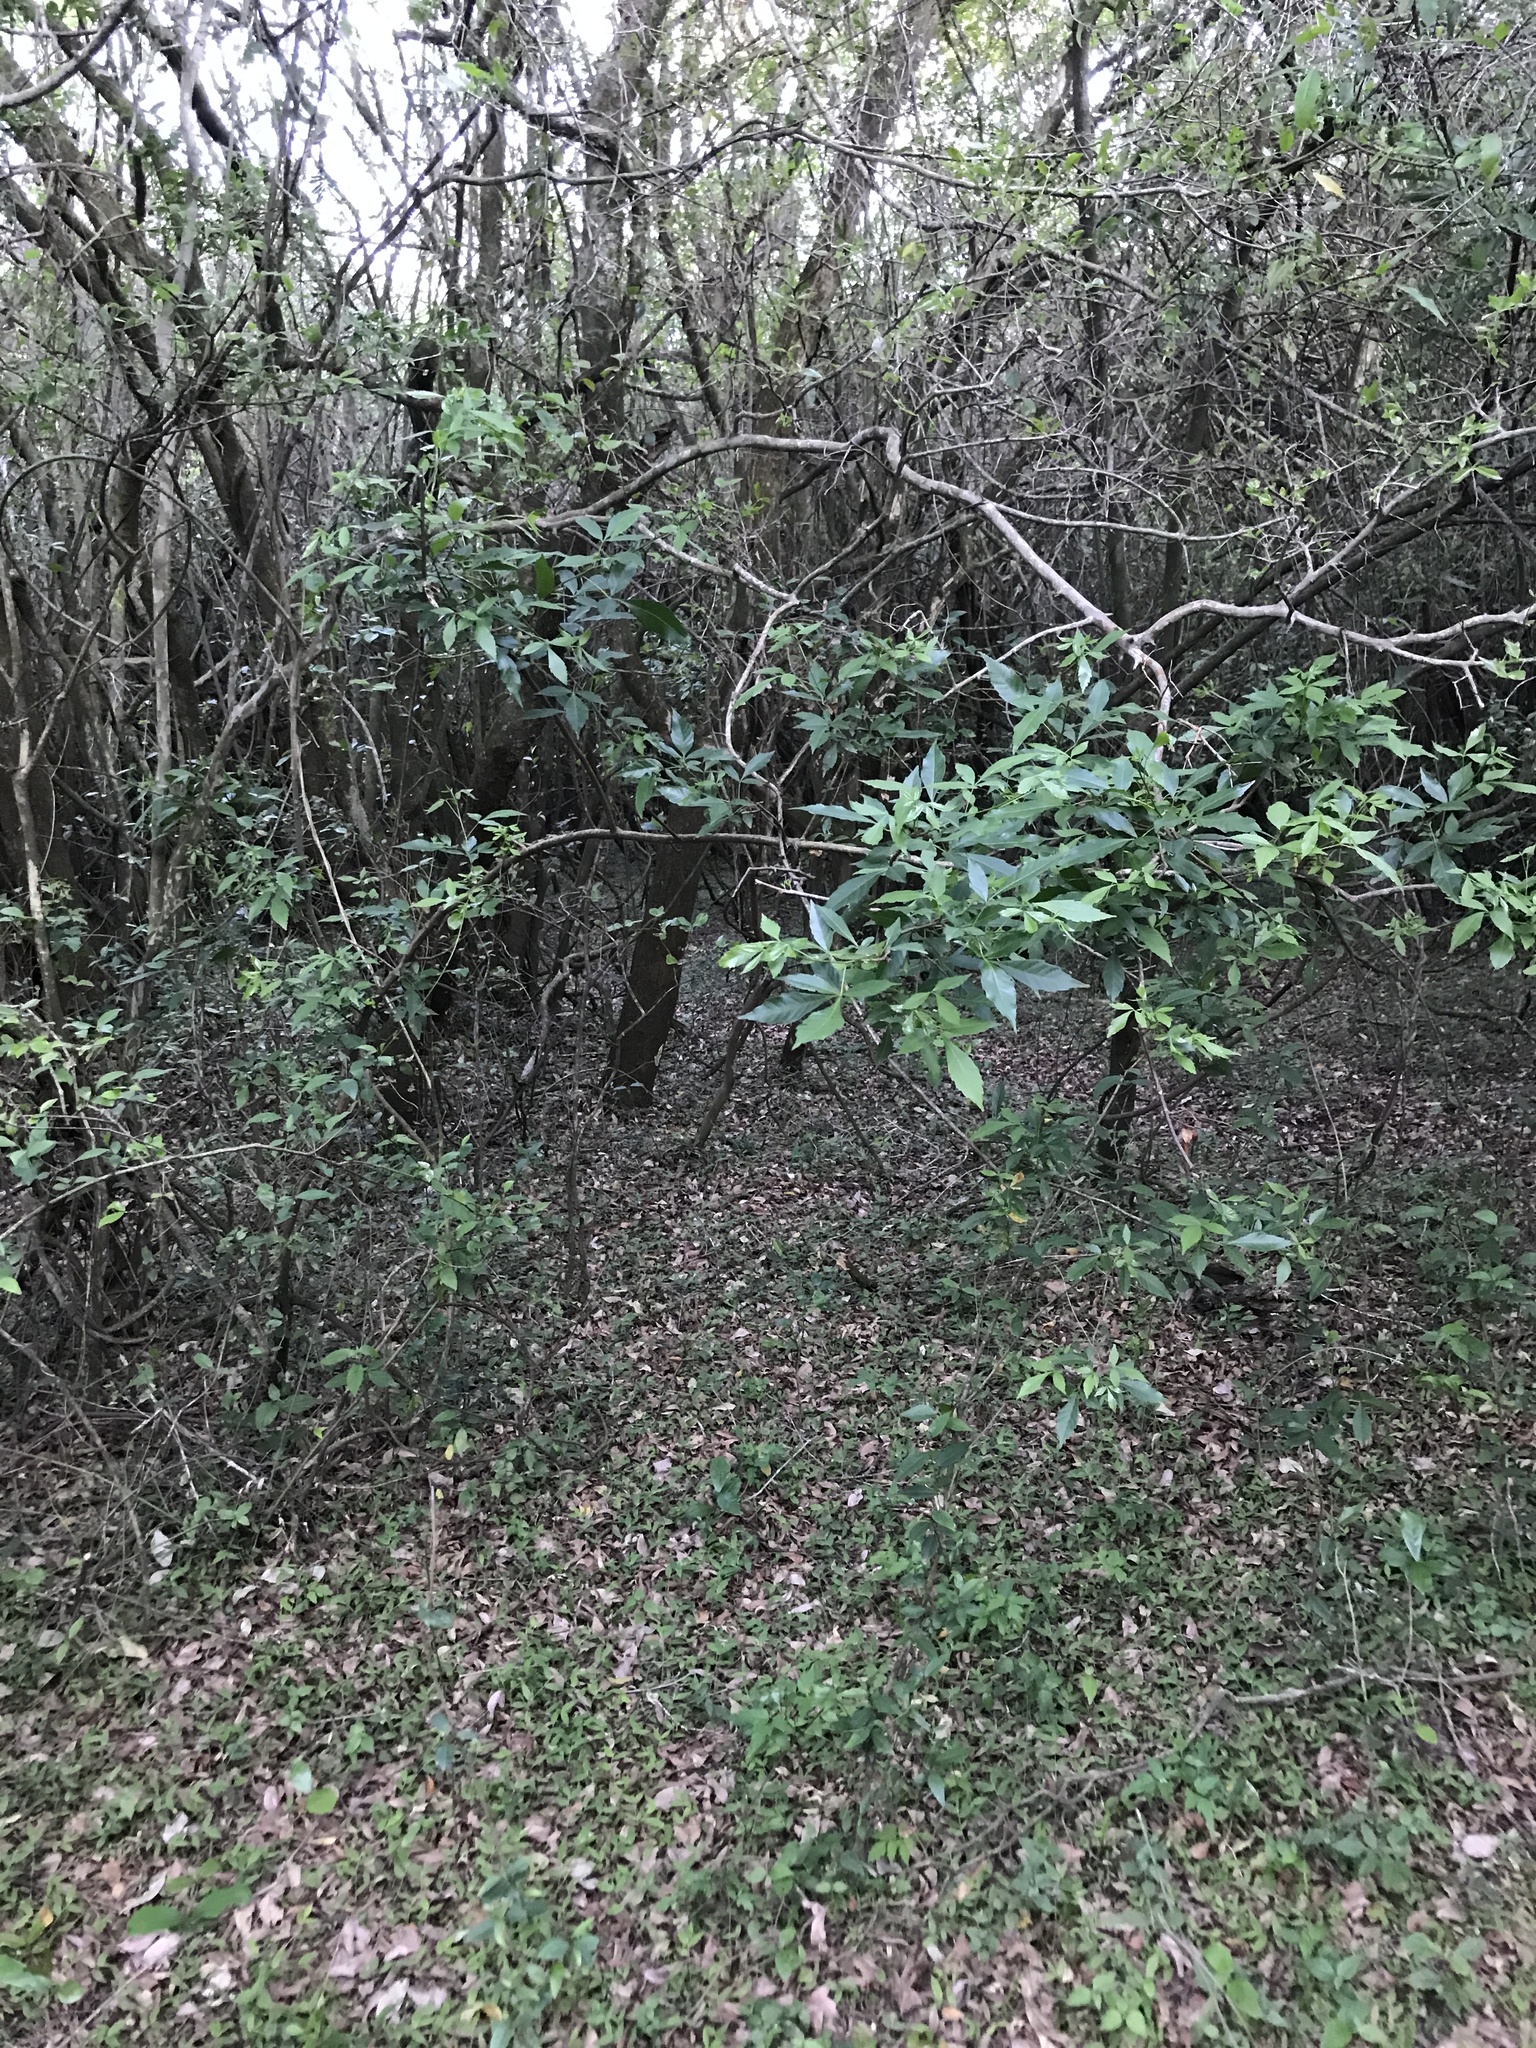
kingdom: Plantae
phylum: Tracheophyta
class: Magnoliopsida
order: Sapindales
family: Sapindaceae
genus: Allophylus
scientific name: Allophylus edulis
